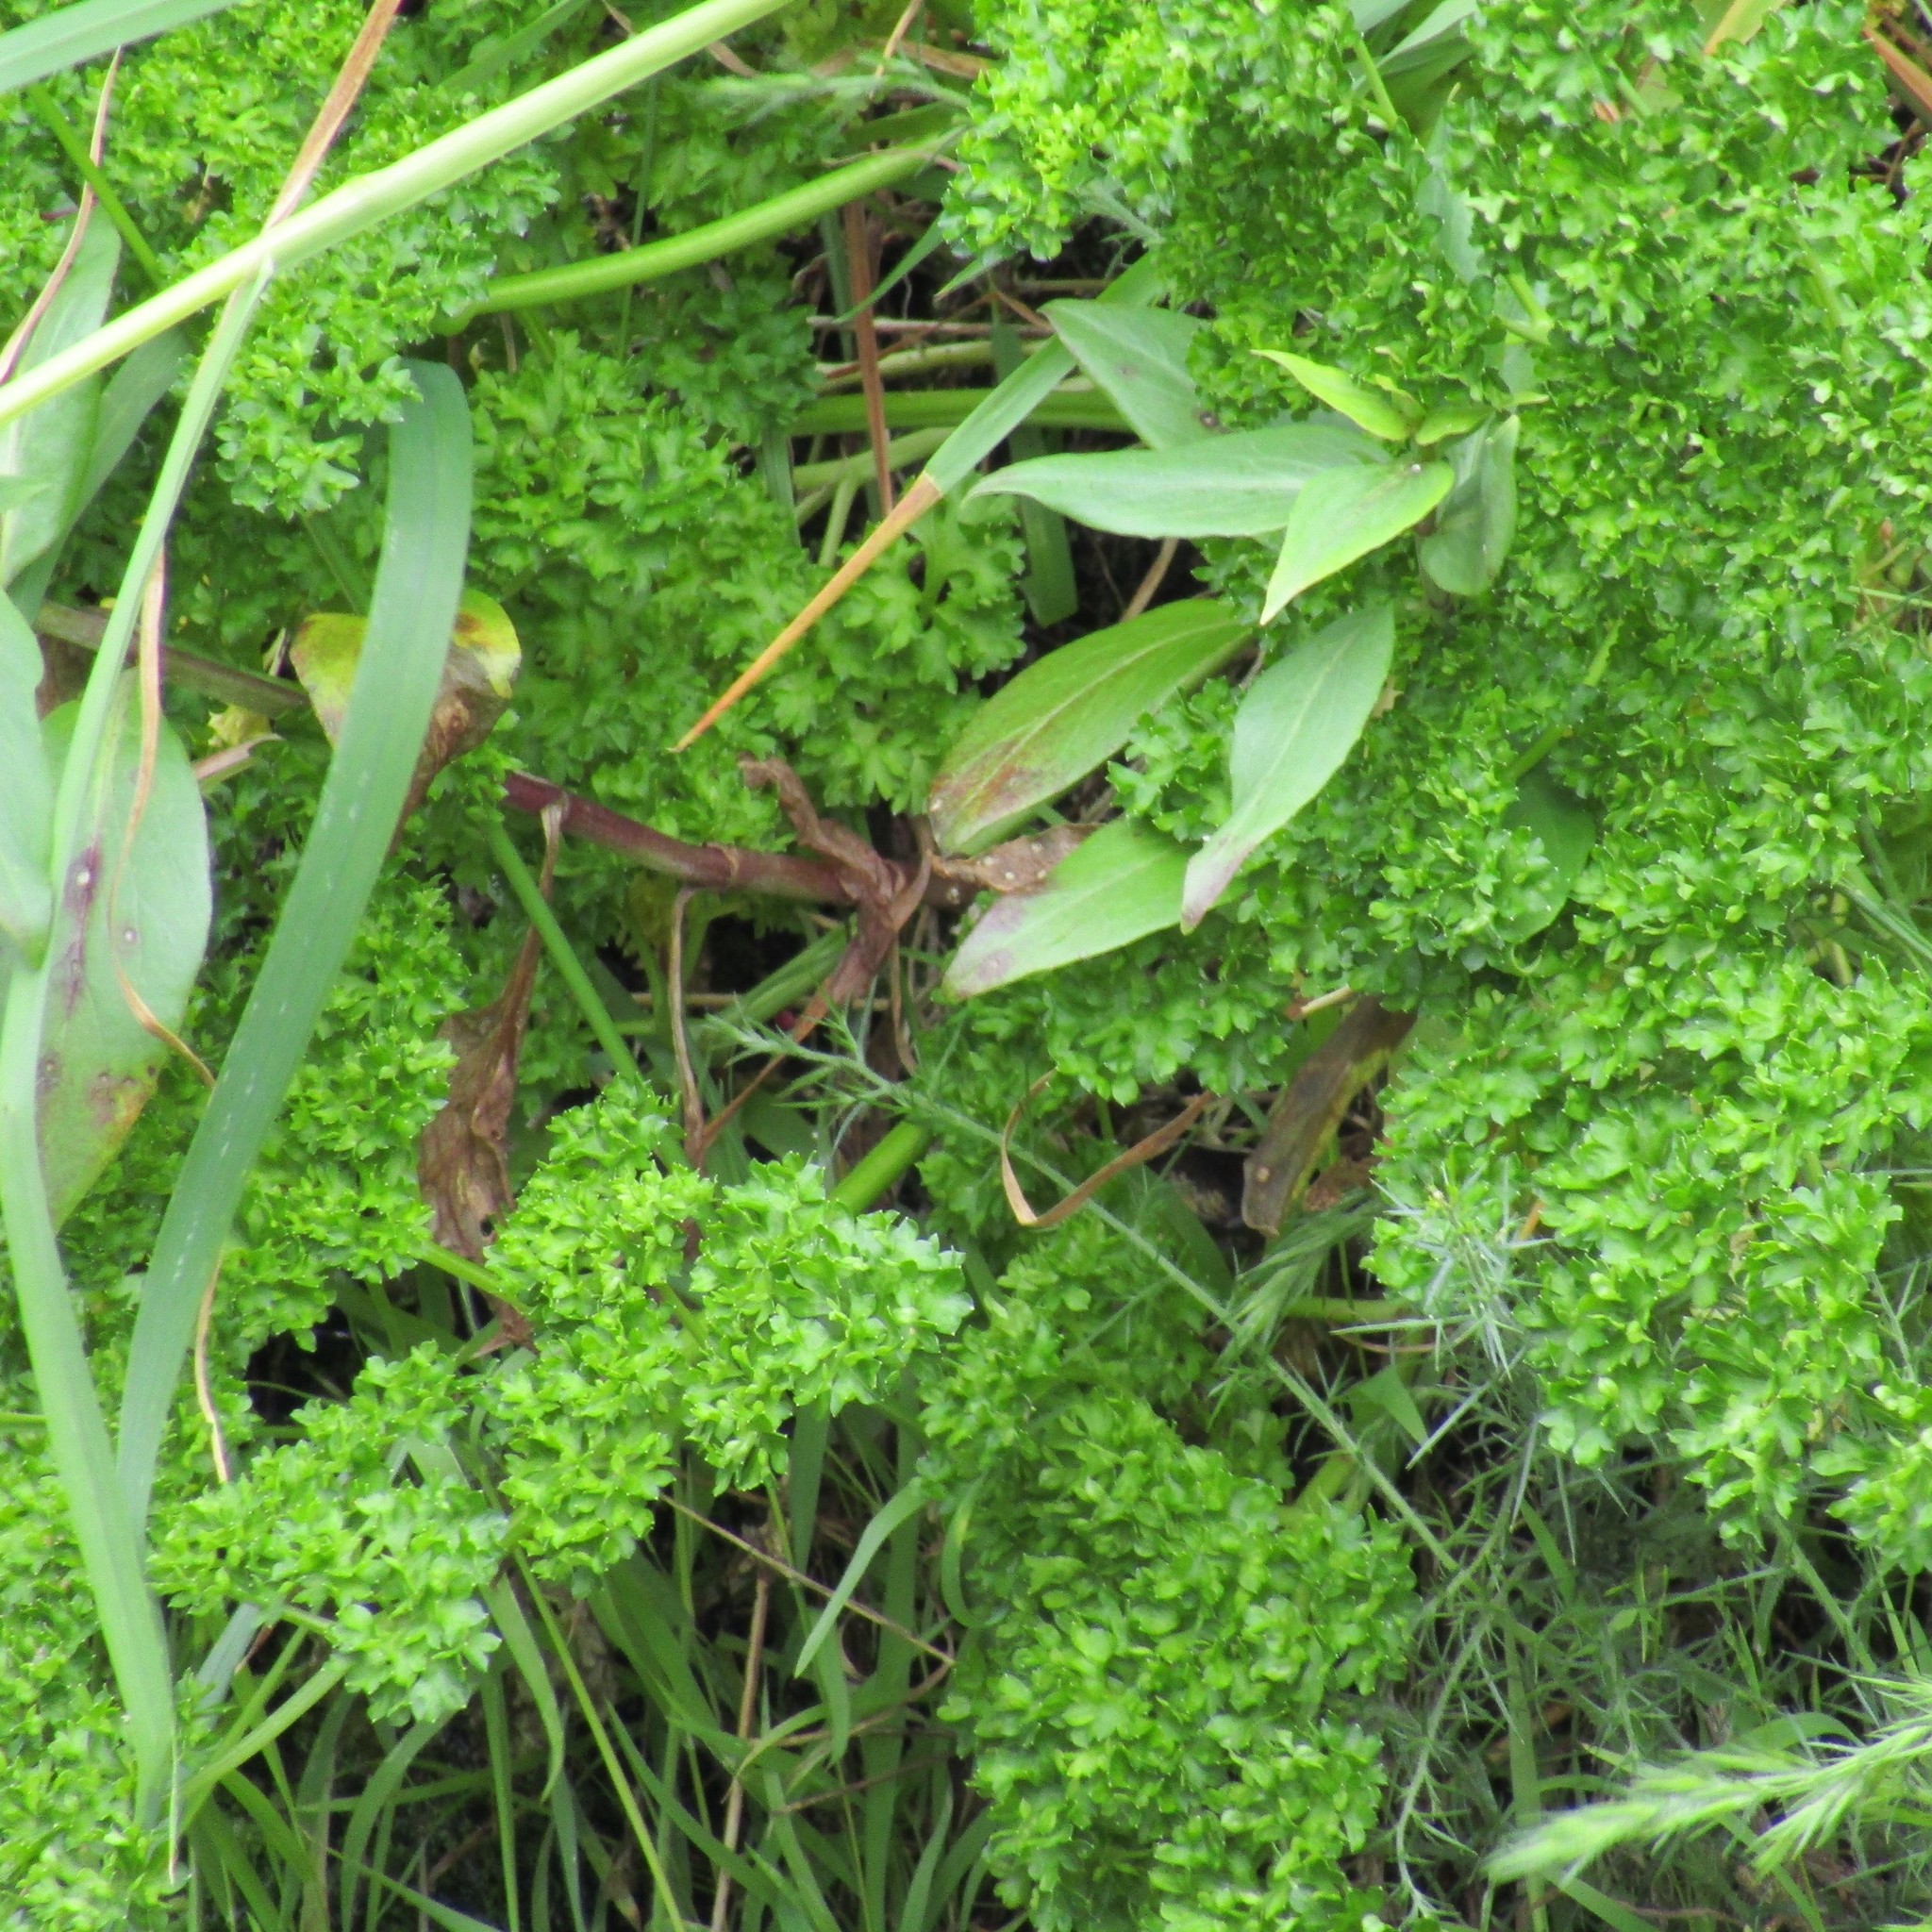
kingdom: Plantae
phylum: Tracheophyta
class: Magnoliopsida
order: Apiales
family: Apiaceae
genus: Petroselinum
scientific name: Petroselinum crispum
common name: Parsley
